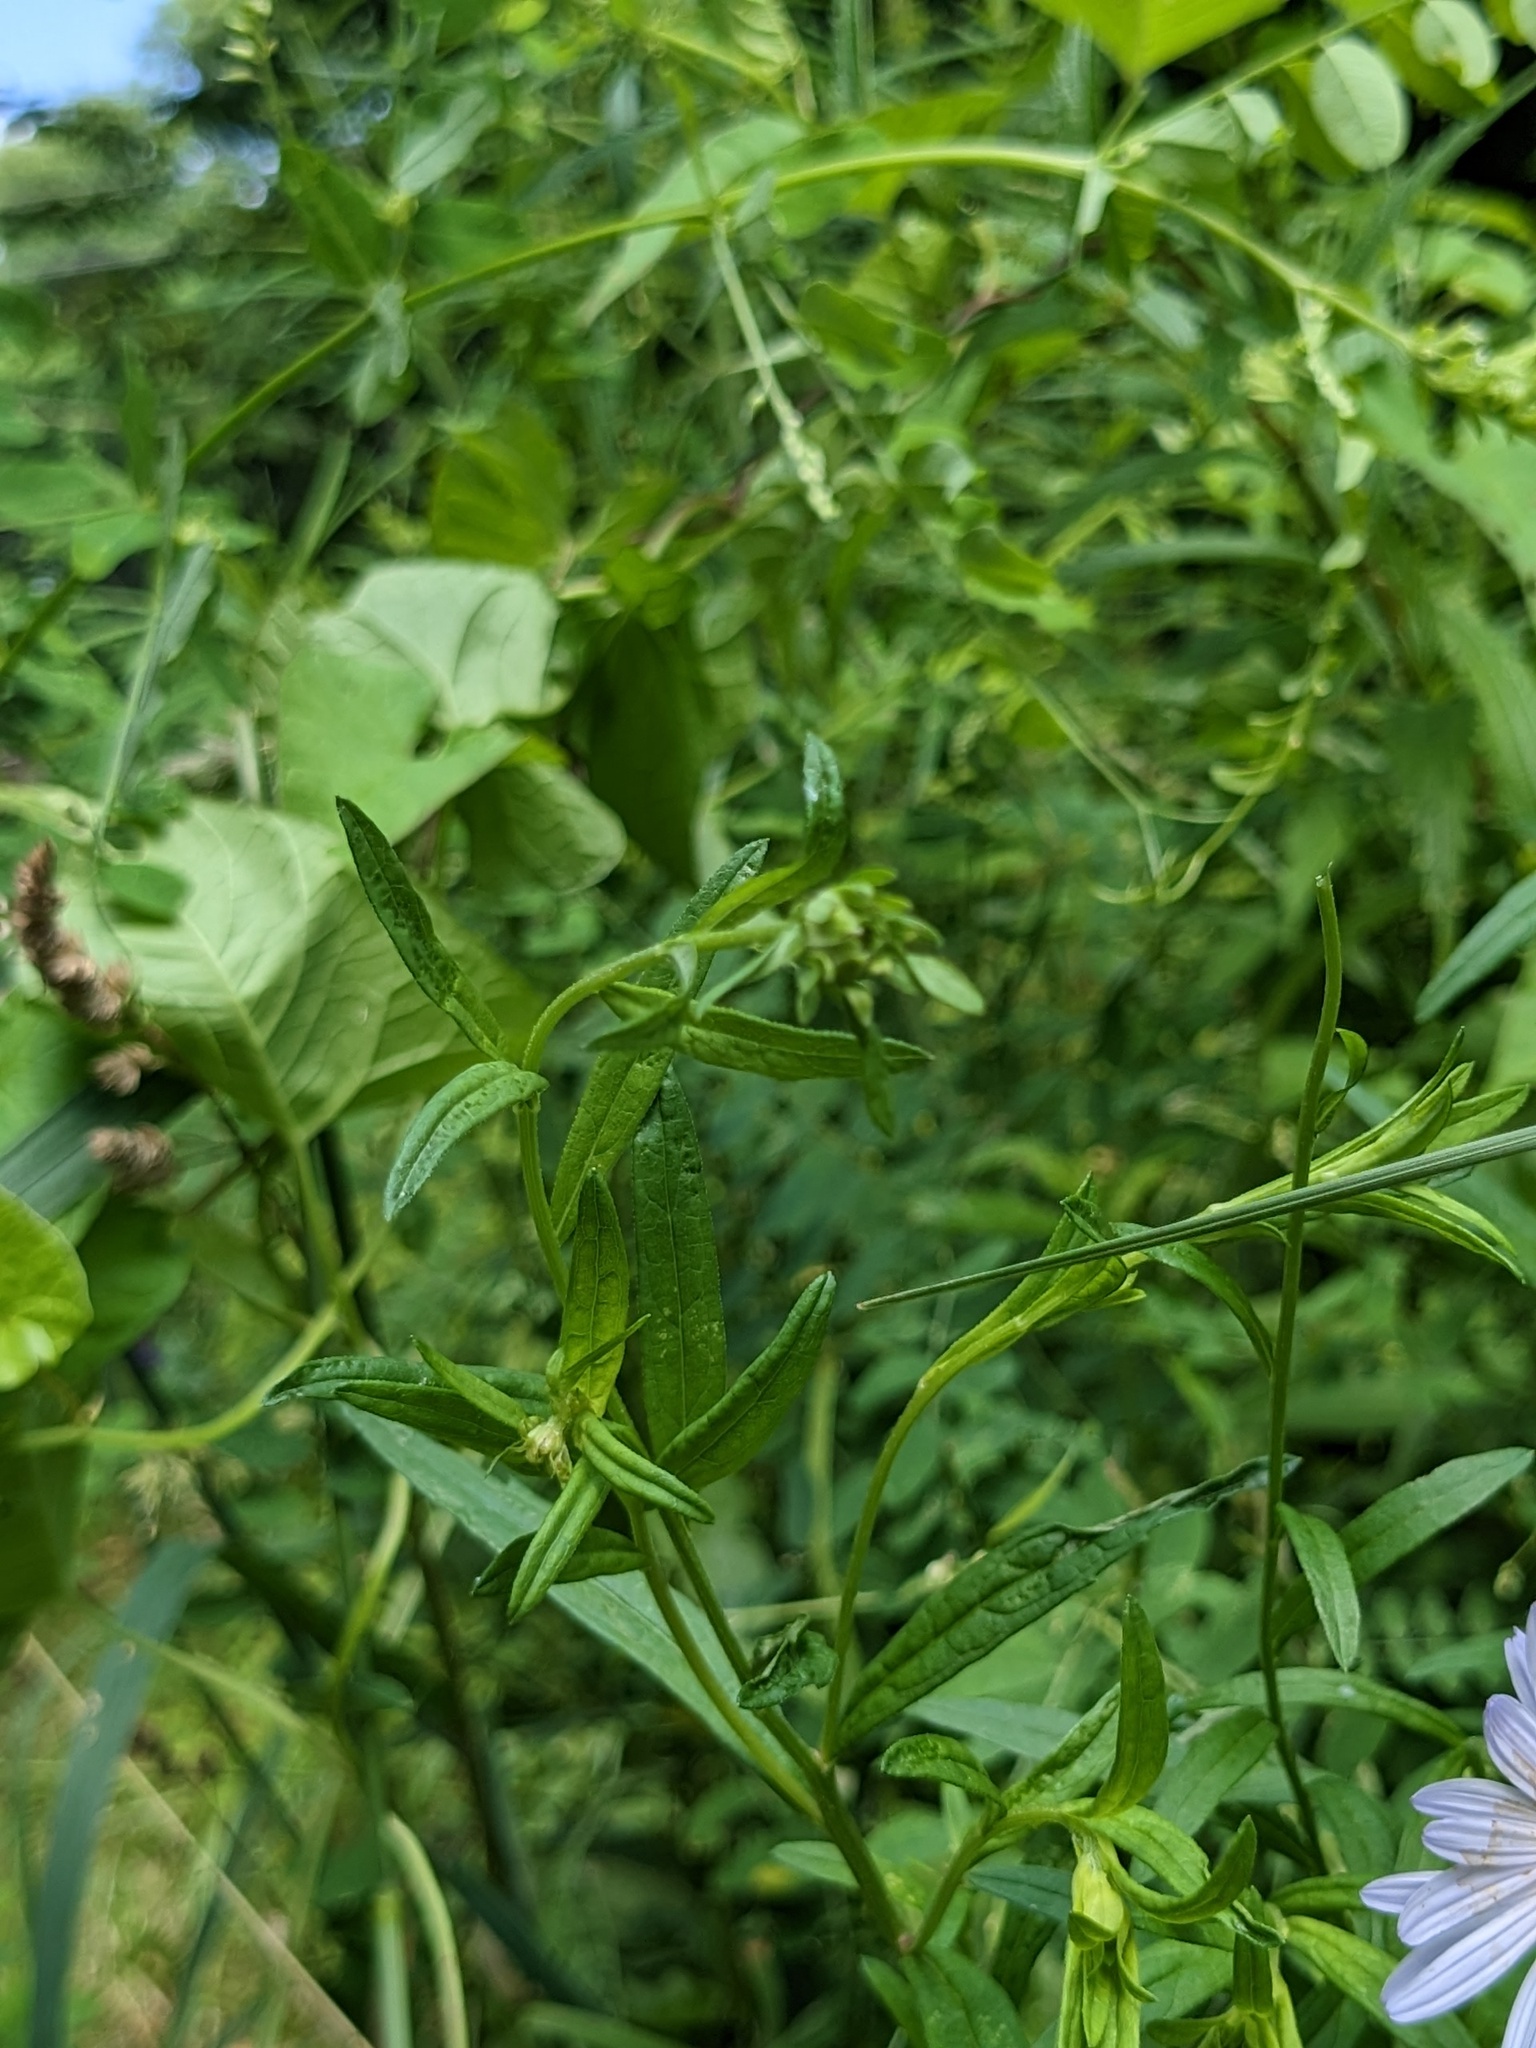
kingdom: Plantae
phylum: Tracheophyta
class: Magnoliopsida
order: Asterales
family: Asteraceae
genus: Kalimeris
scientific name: Kalimeris incisa
